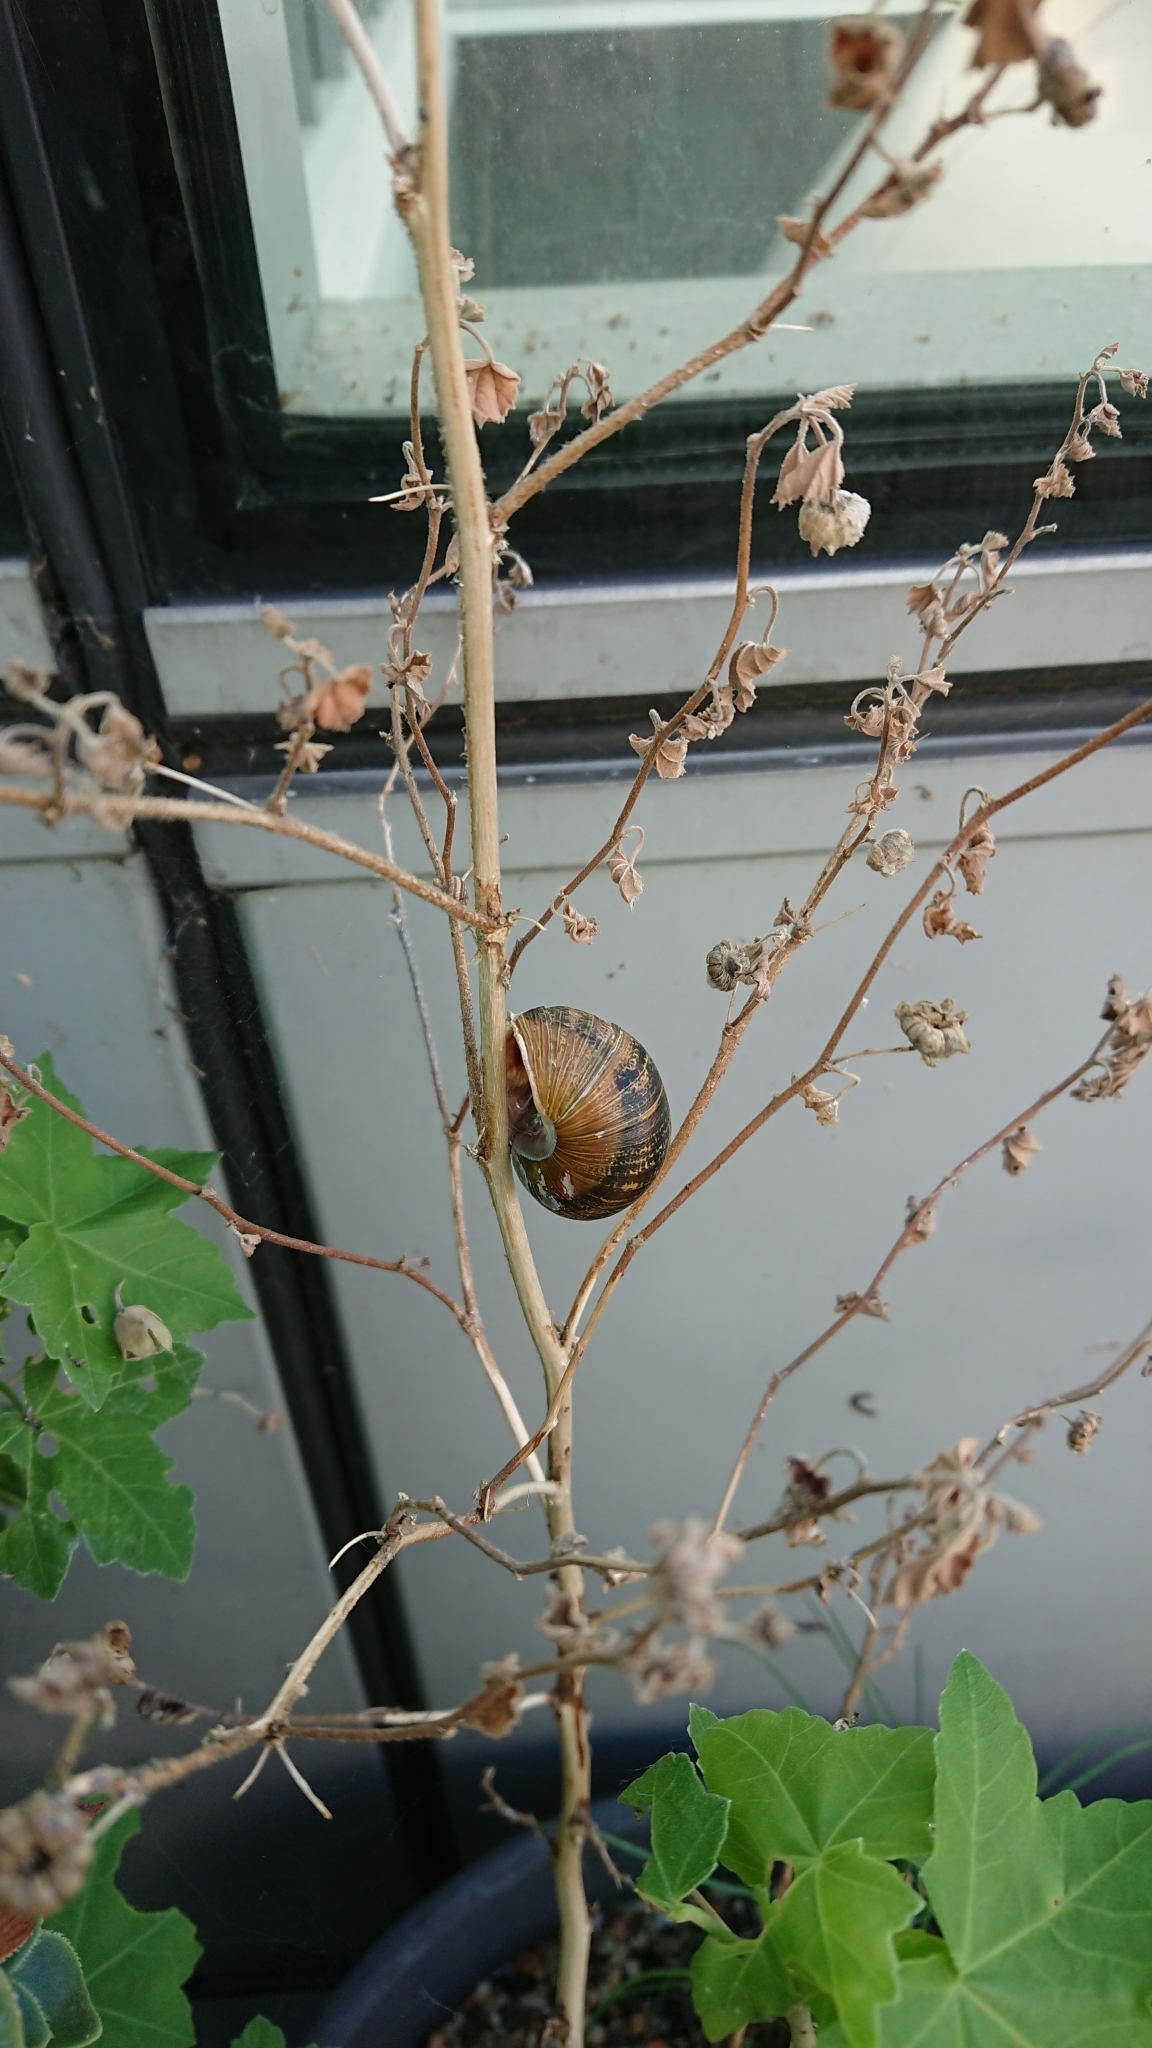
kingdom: Animalia
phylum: Mollusca
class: Gastropoda
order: Stylommatophora
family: Helicidae
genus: Cornu
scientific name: Cornu aspersum
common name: Brown garden snail
